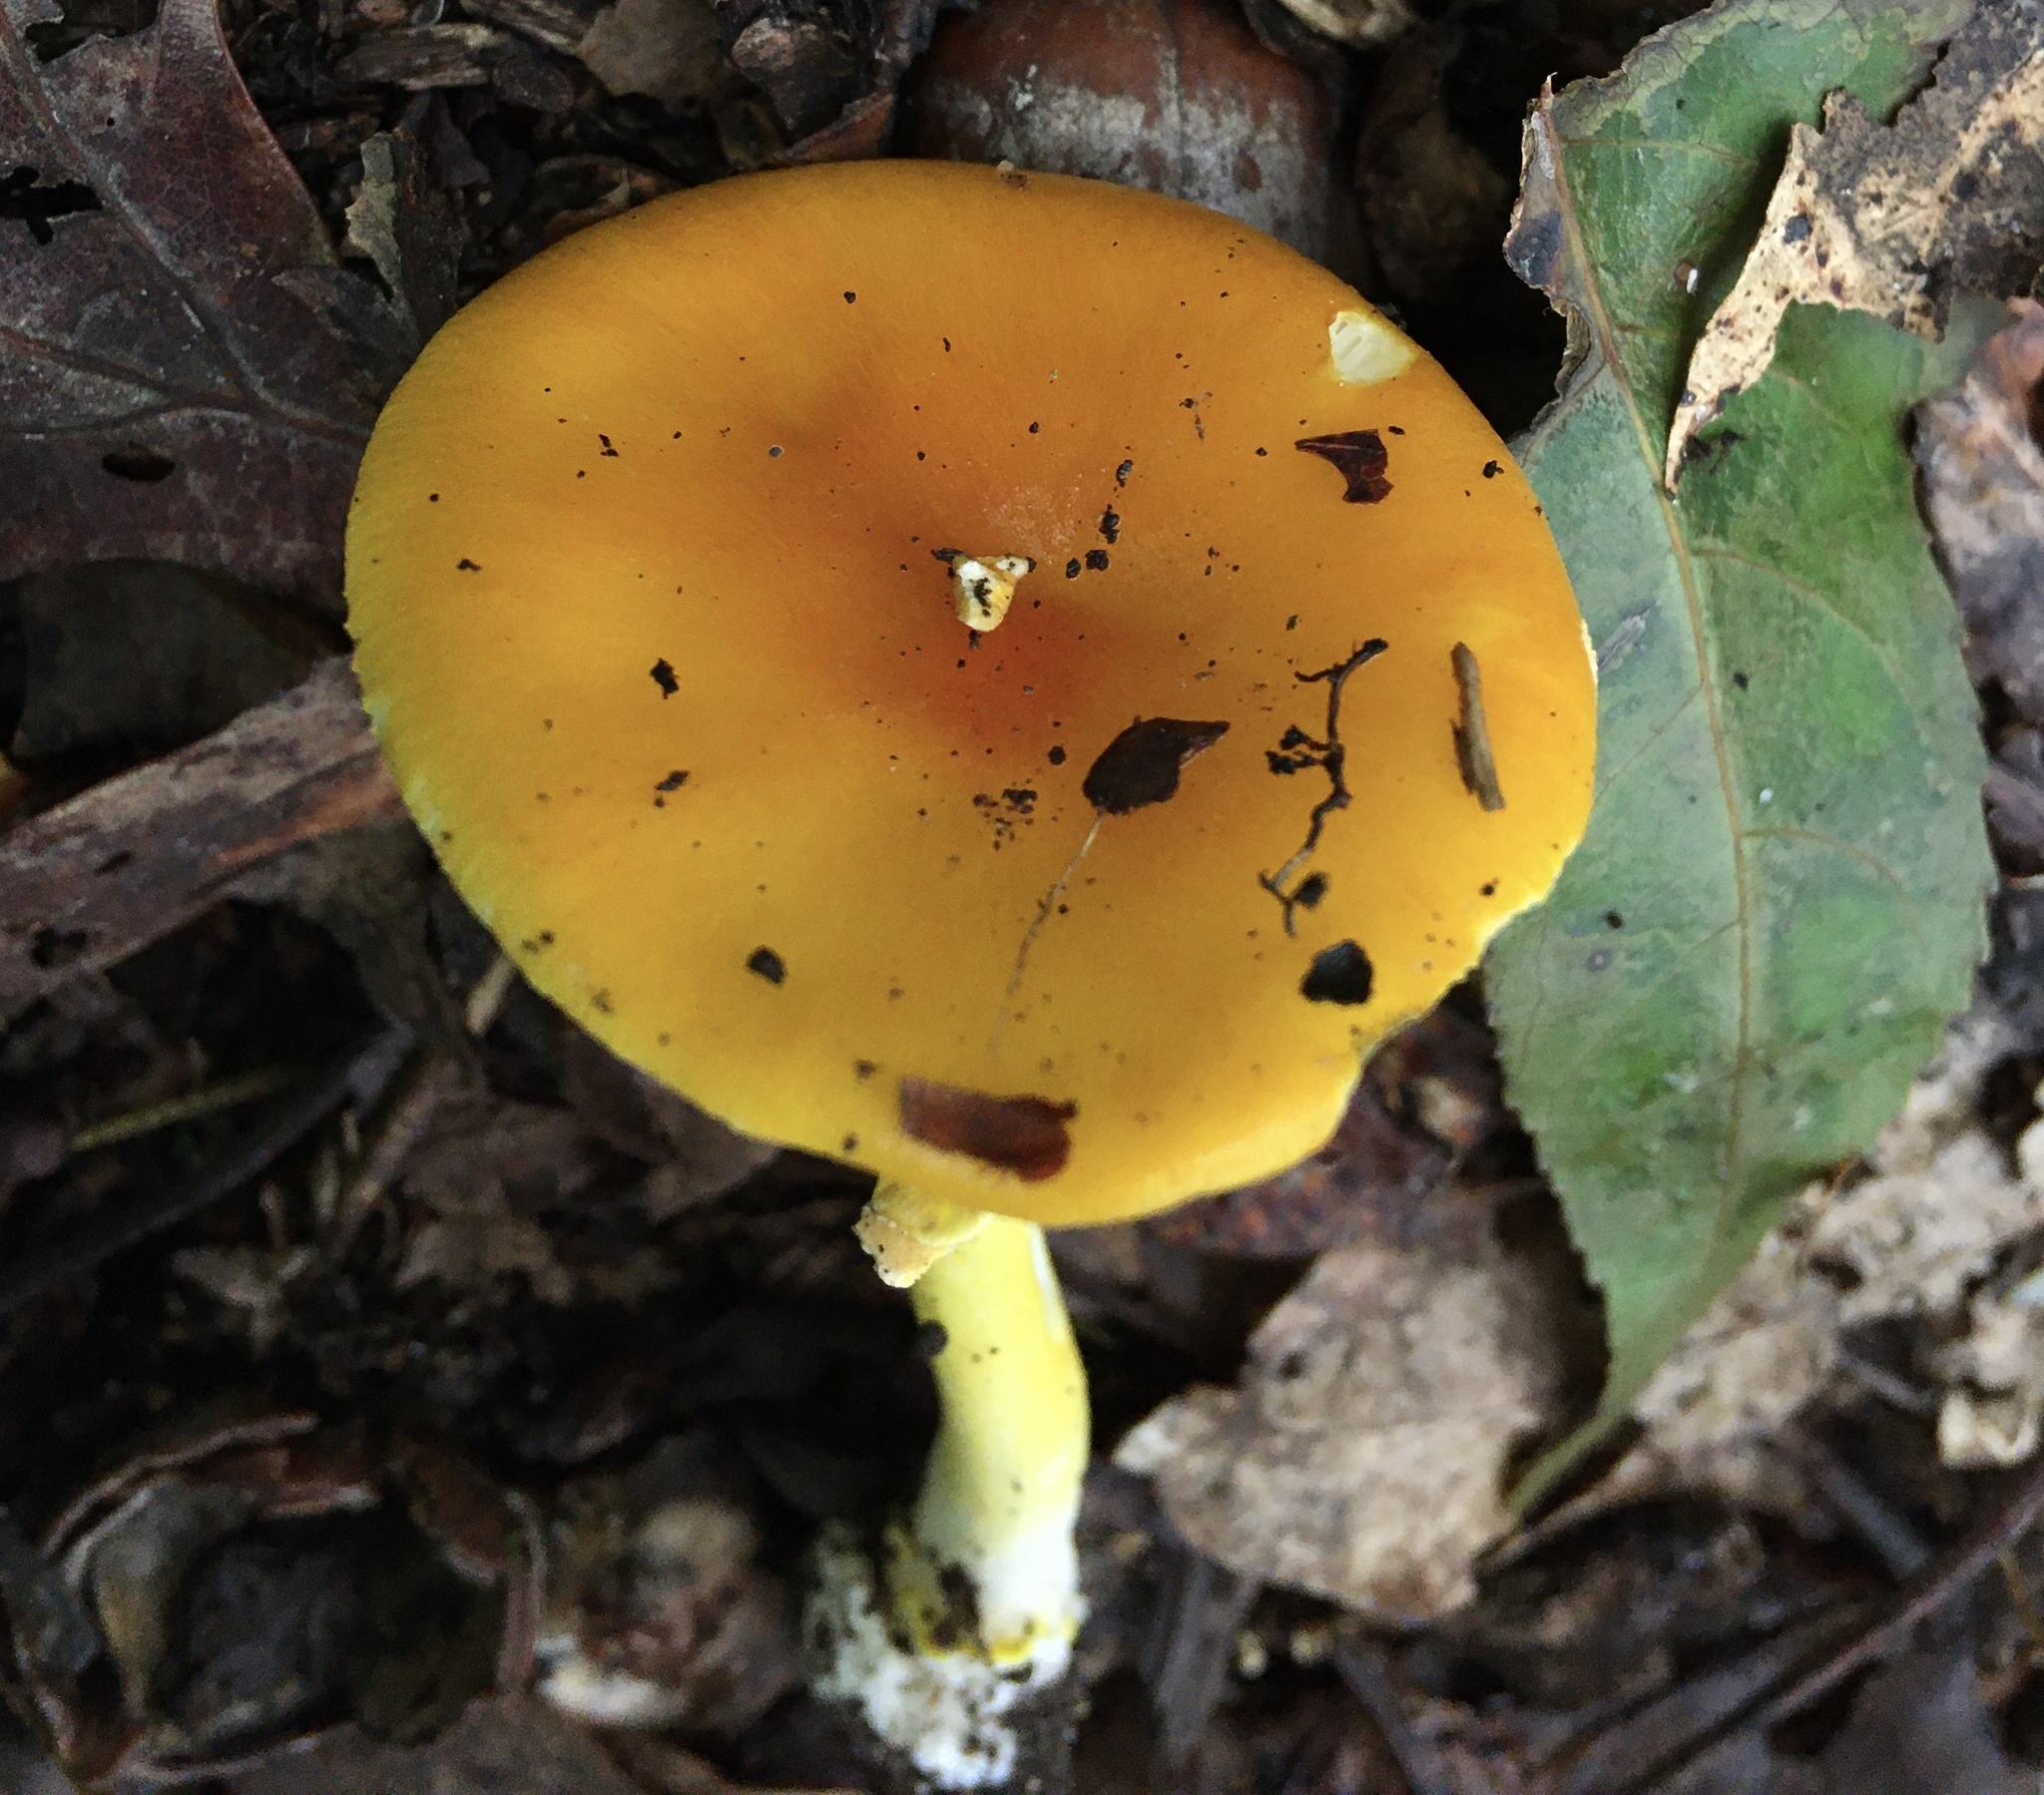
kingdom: Fungi
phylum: Basidiomycota
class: Agaricomycetes
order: Agaricales
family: Amanitaceae
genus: Amanita
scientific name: Amanita flavoconia
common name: Yellow patches
